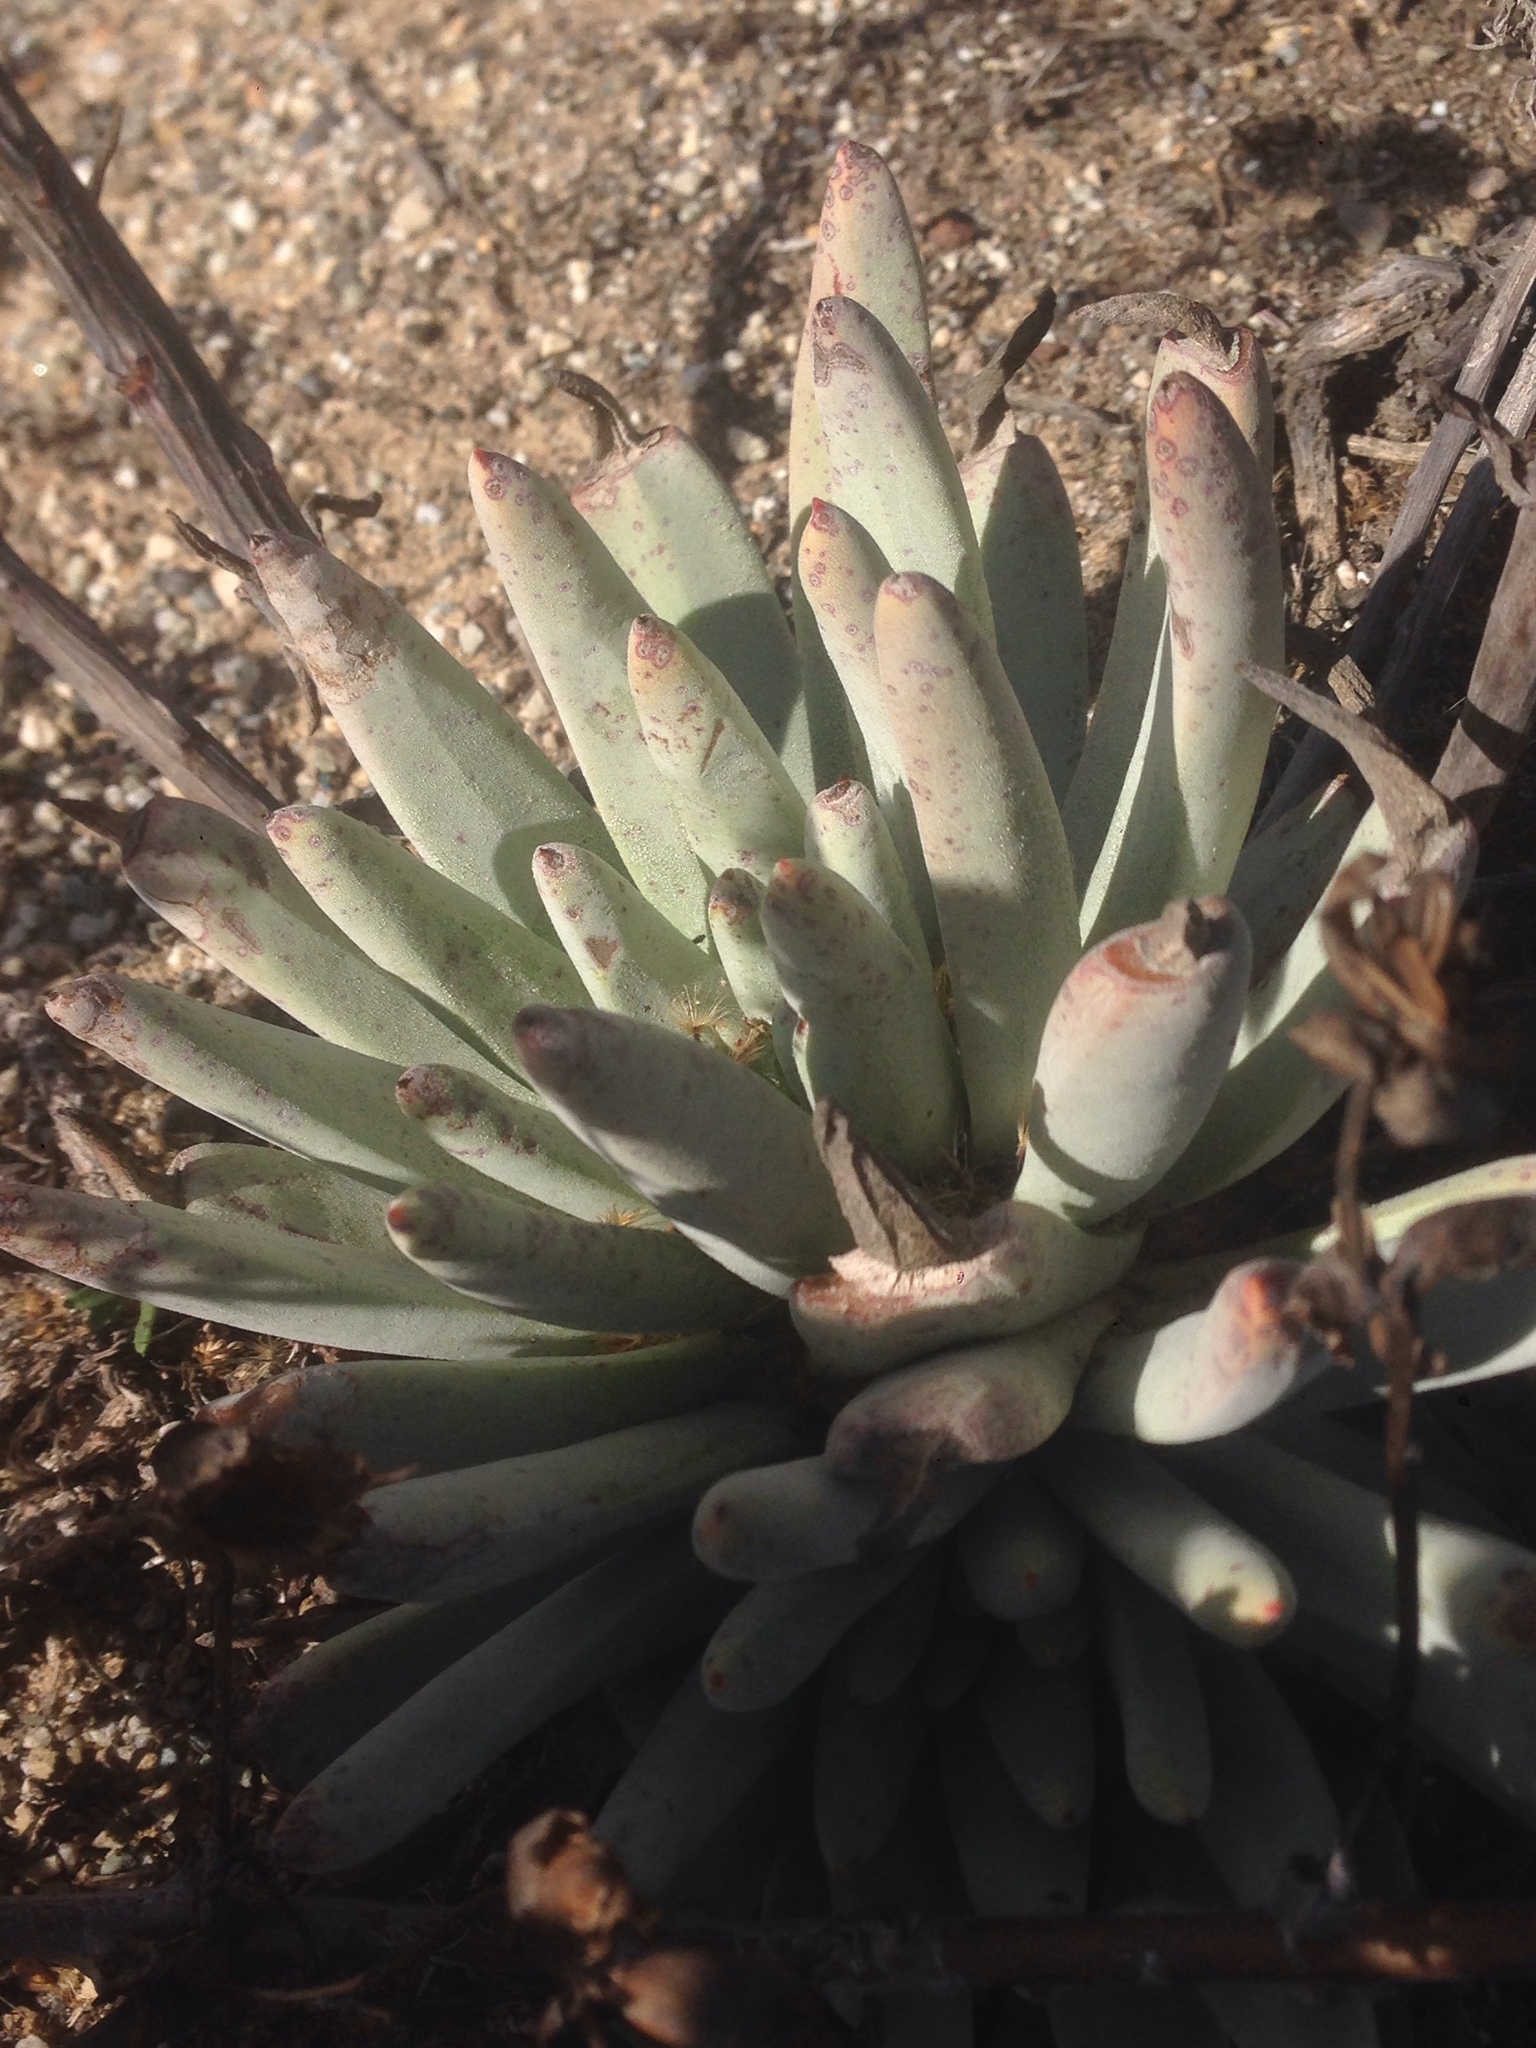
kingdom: Plantae
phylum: Tracheophyta
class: Magnoliopsida
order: Saxifragales
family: Crassulaceae
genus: Dudleya
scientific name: Dudleya virens
